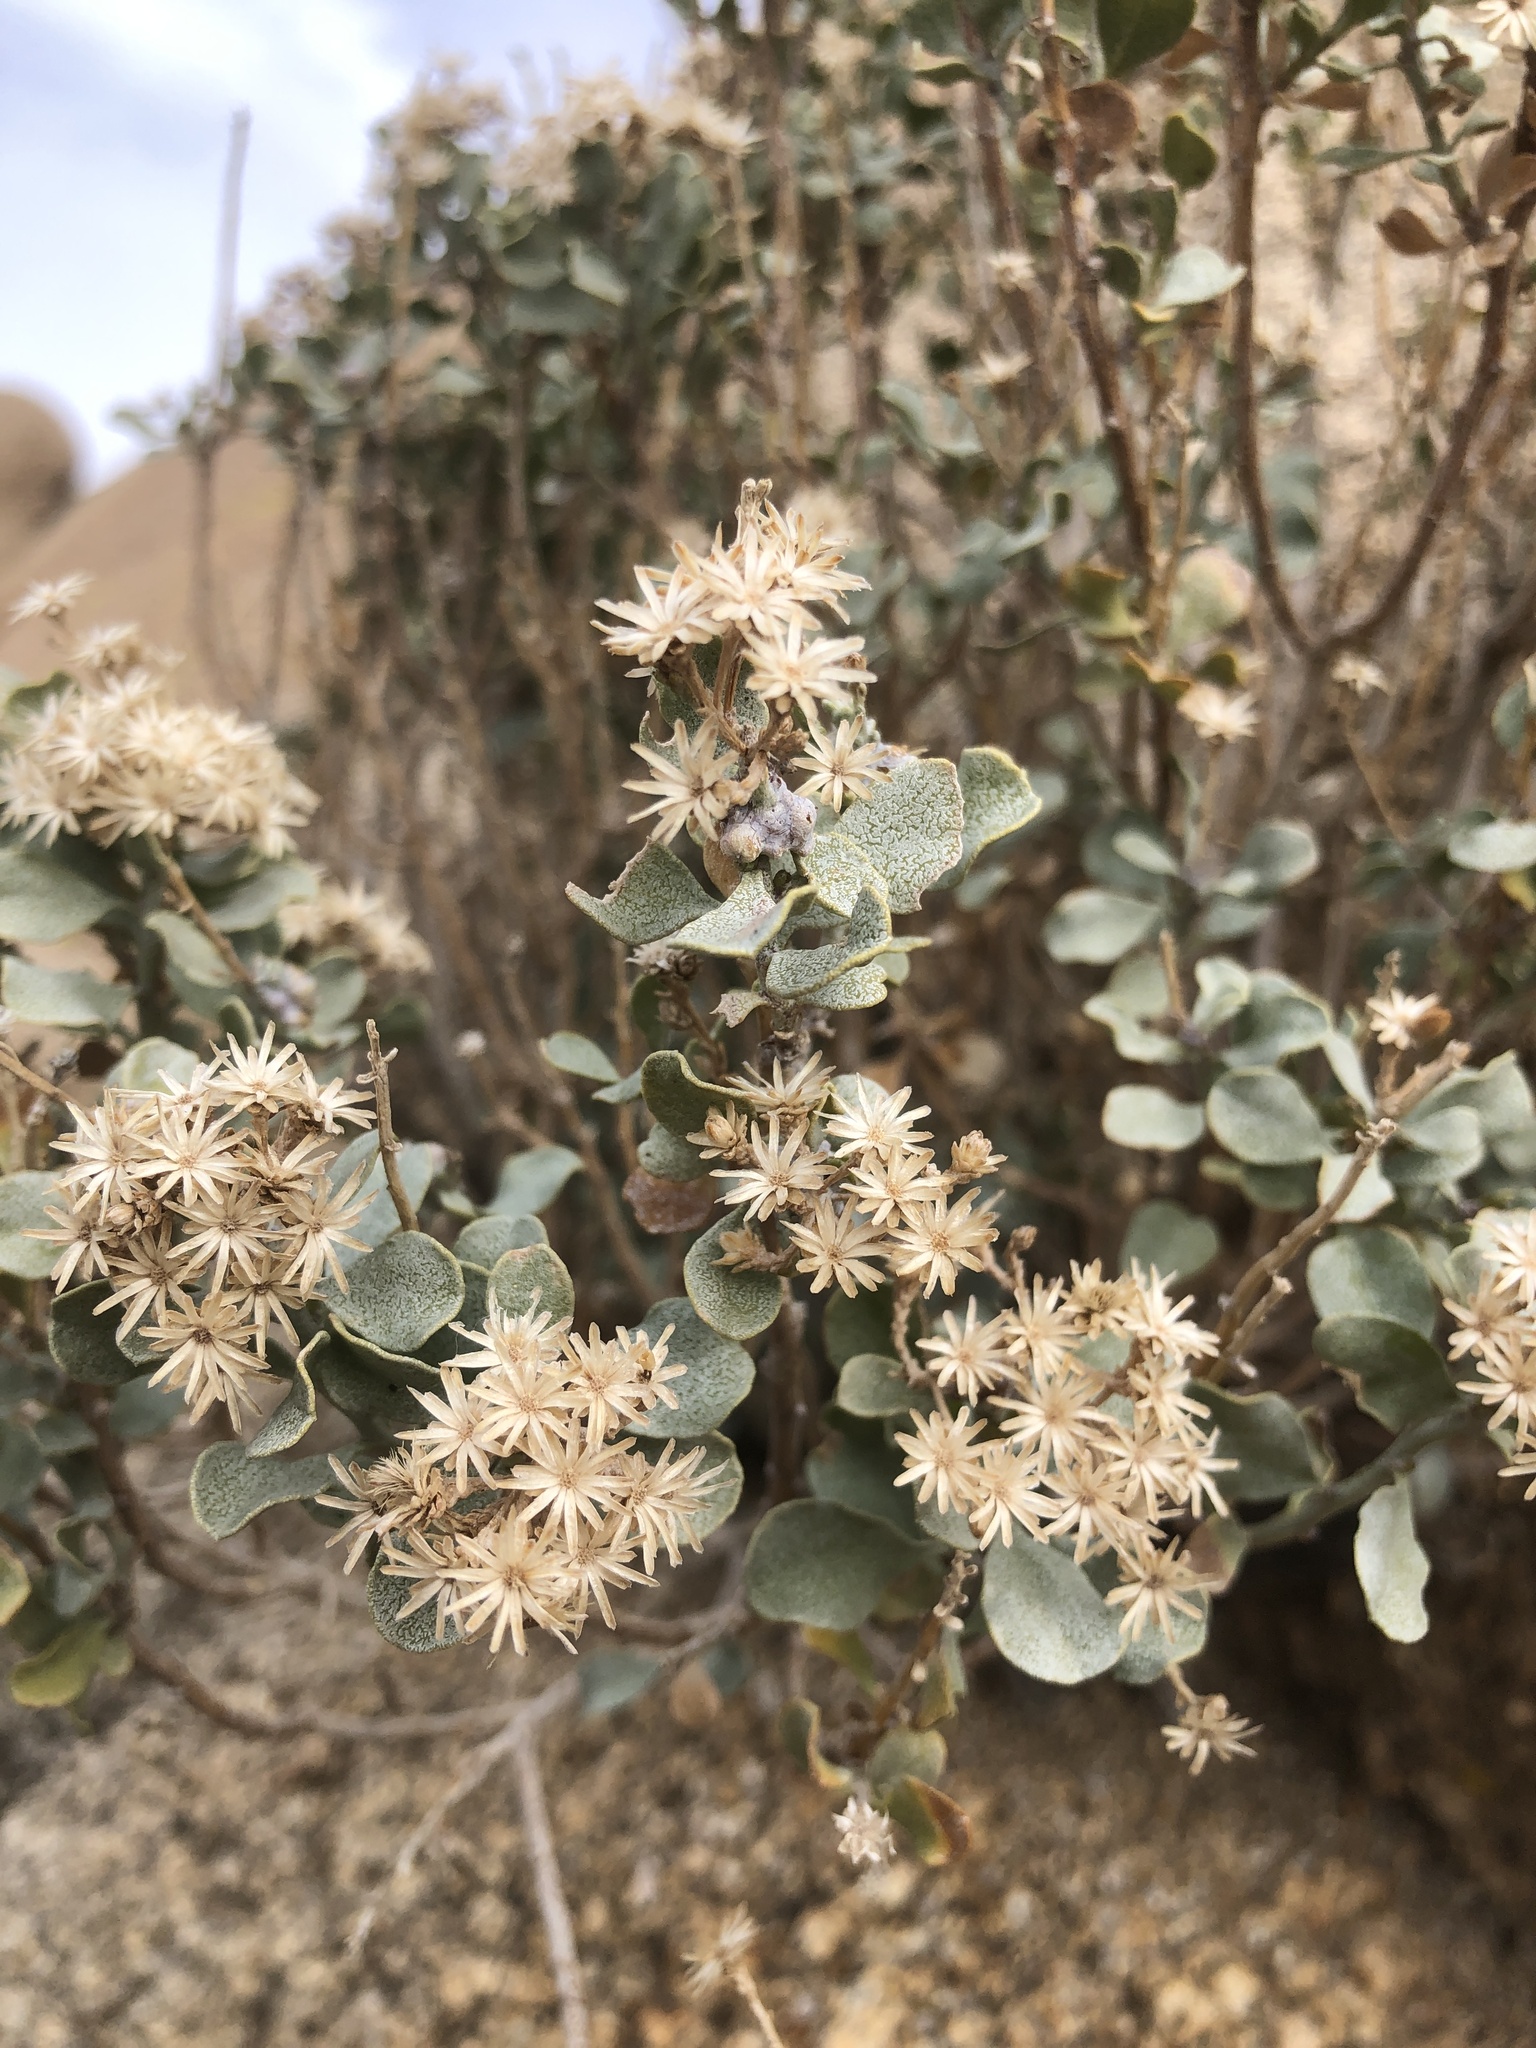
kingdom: Plantae
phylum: Tracheophyta
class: Magnoliopsida
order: Asterales
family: Asteraceae
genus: Ericameria
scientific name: Ericameria cuneata
